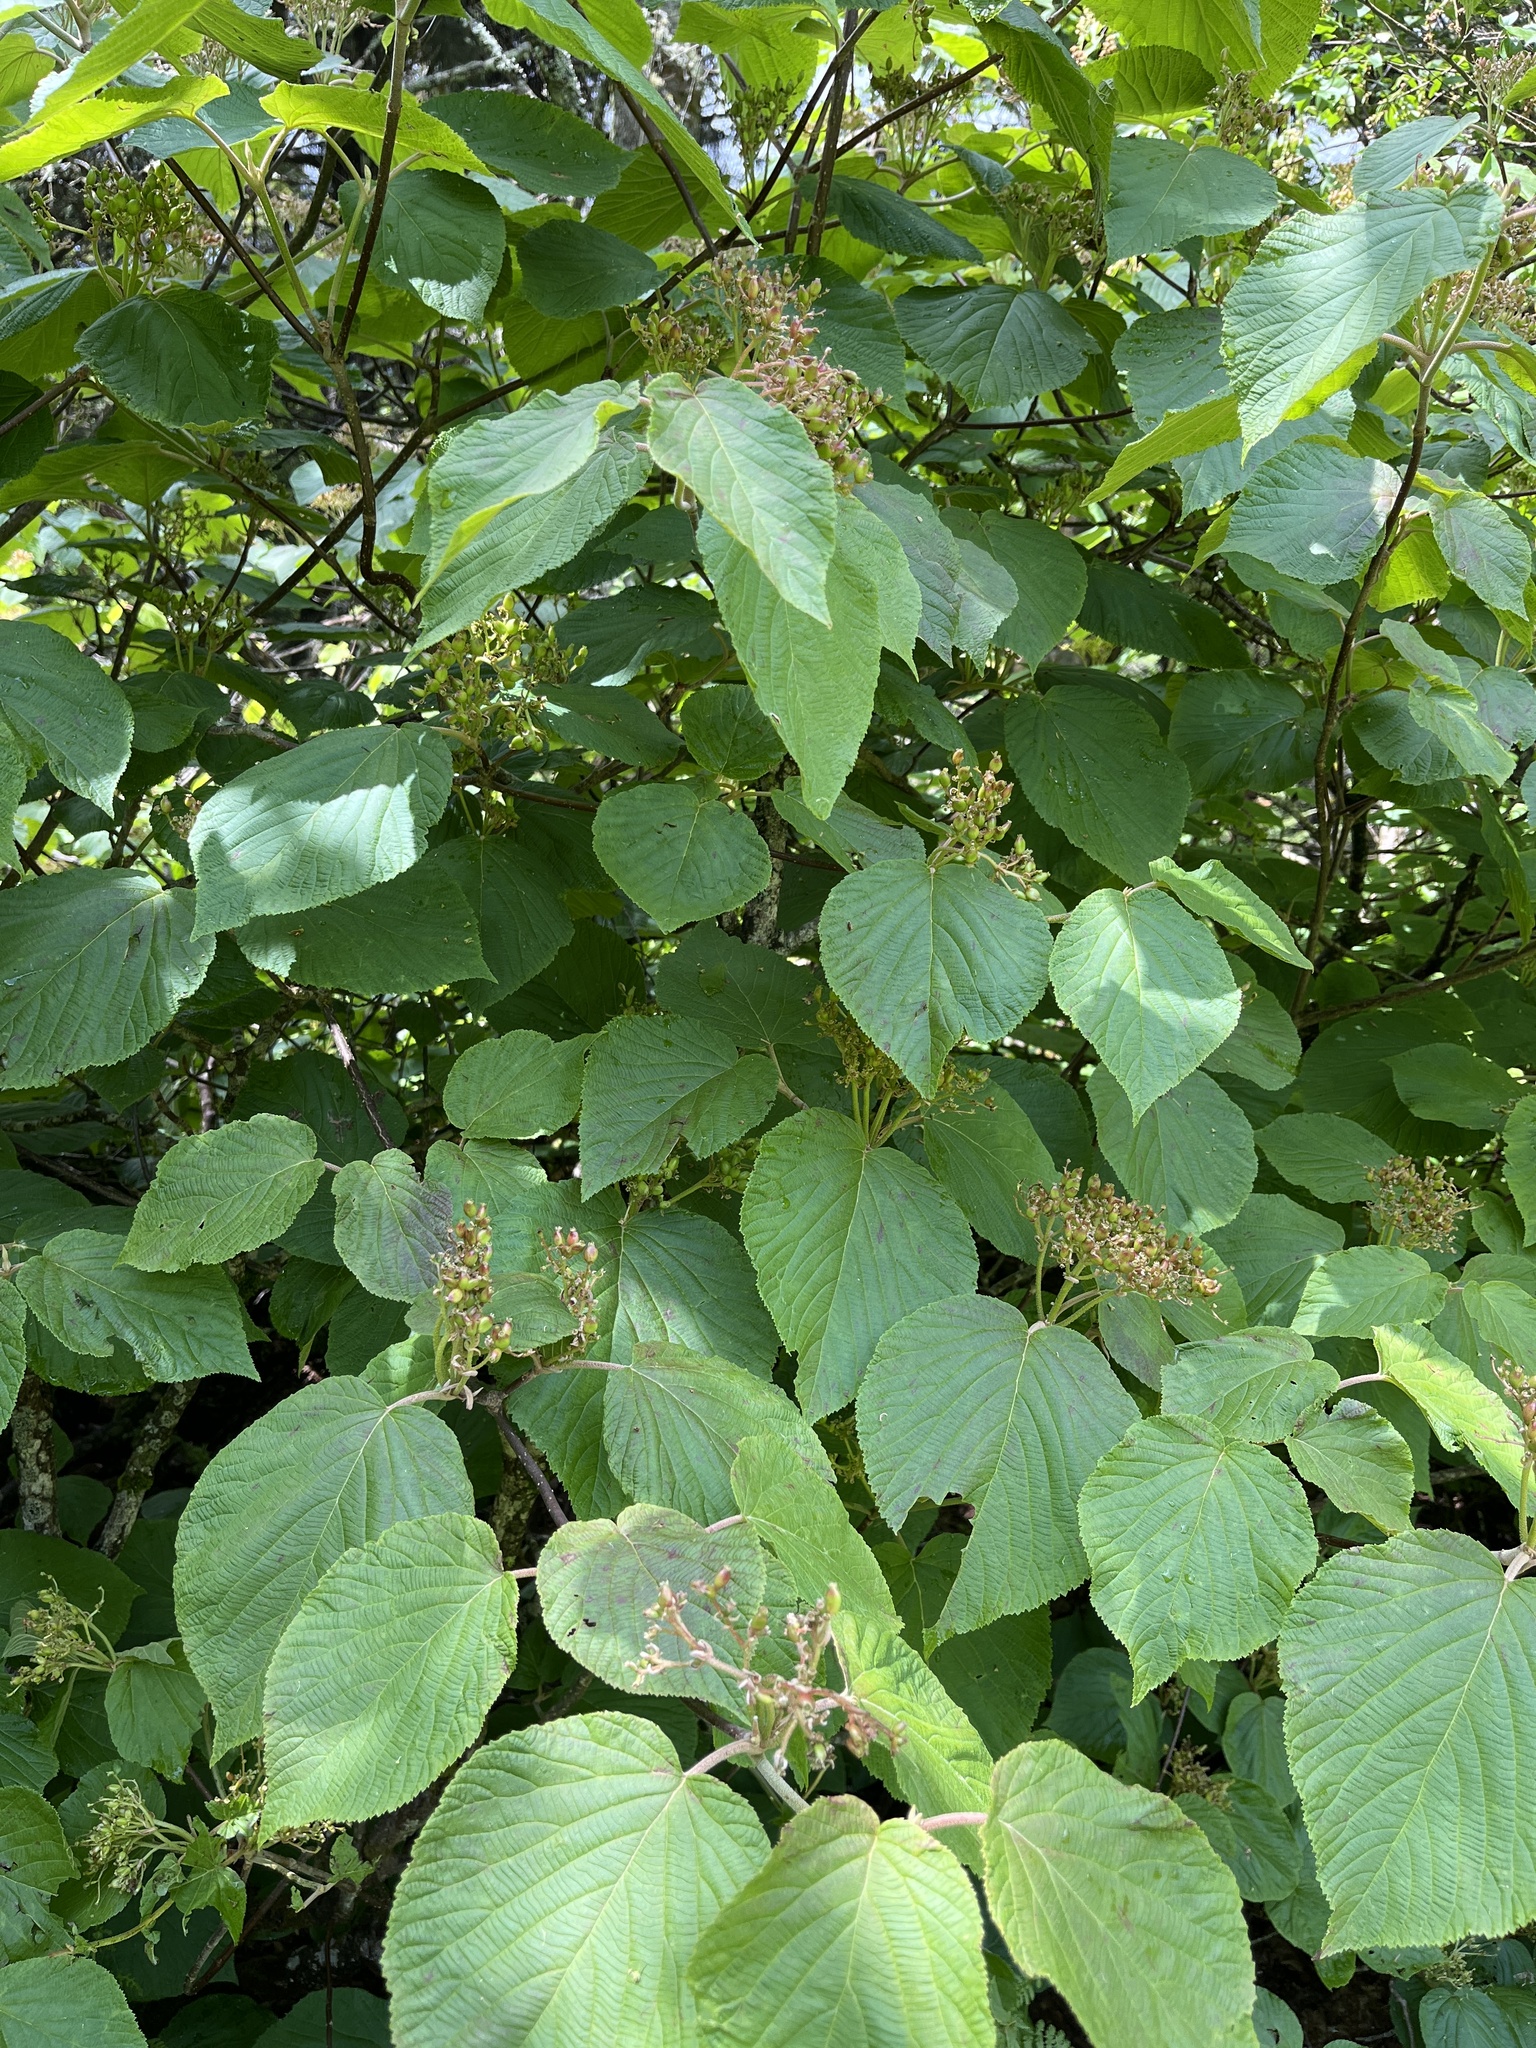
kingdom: Plantae
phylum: Tracheophyta
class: Magnoliopsida
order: Dipsacales
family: Viburnaceae
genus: Viburnum
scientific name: Viburnum lantanoides
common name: Hobblebush
